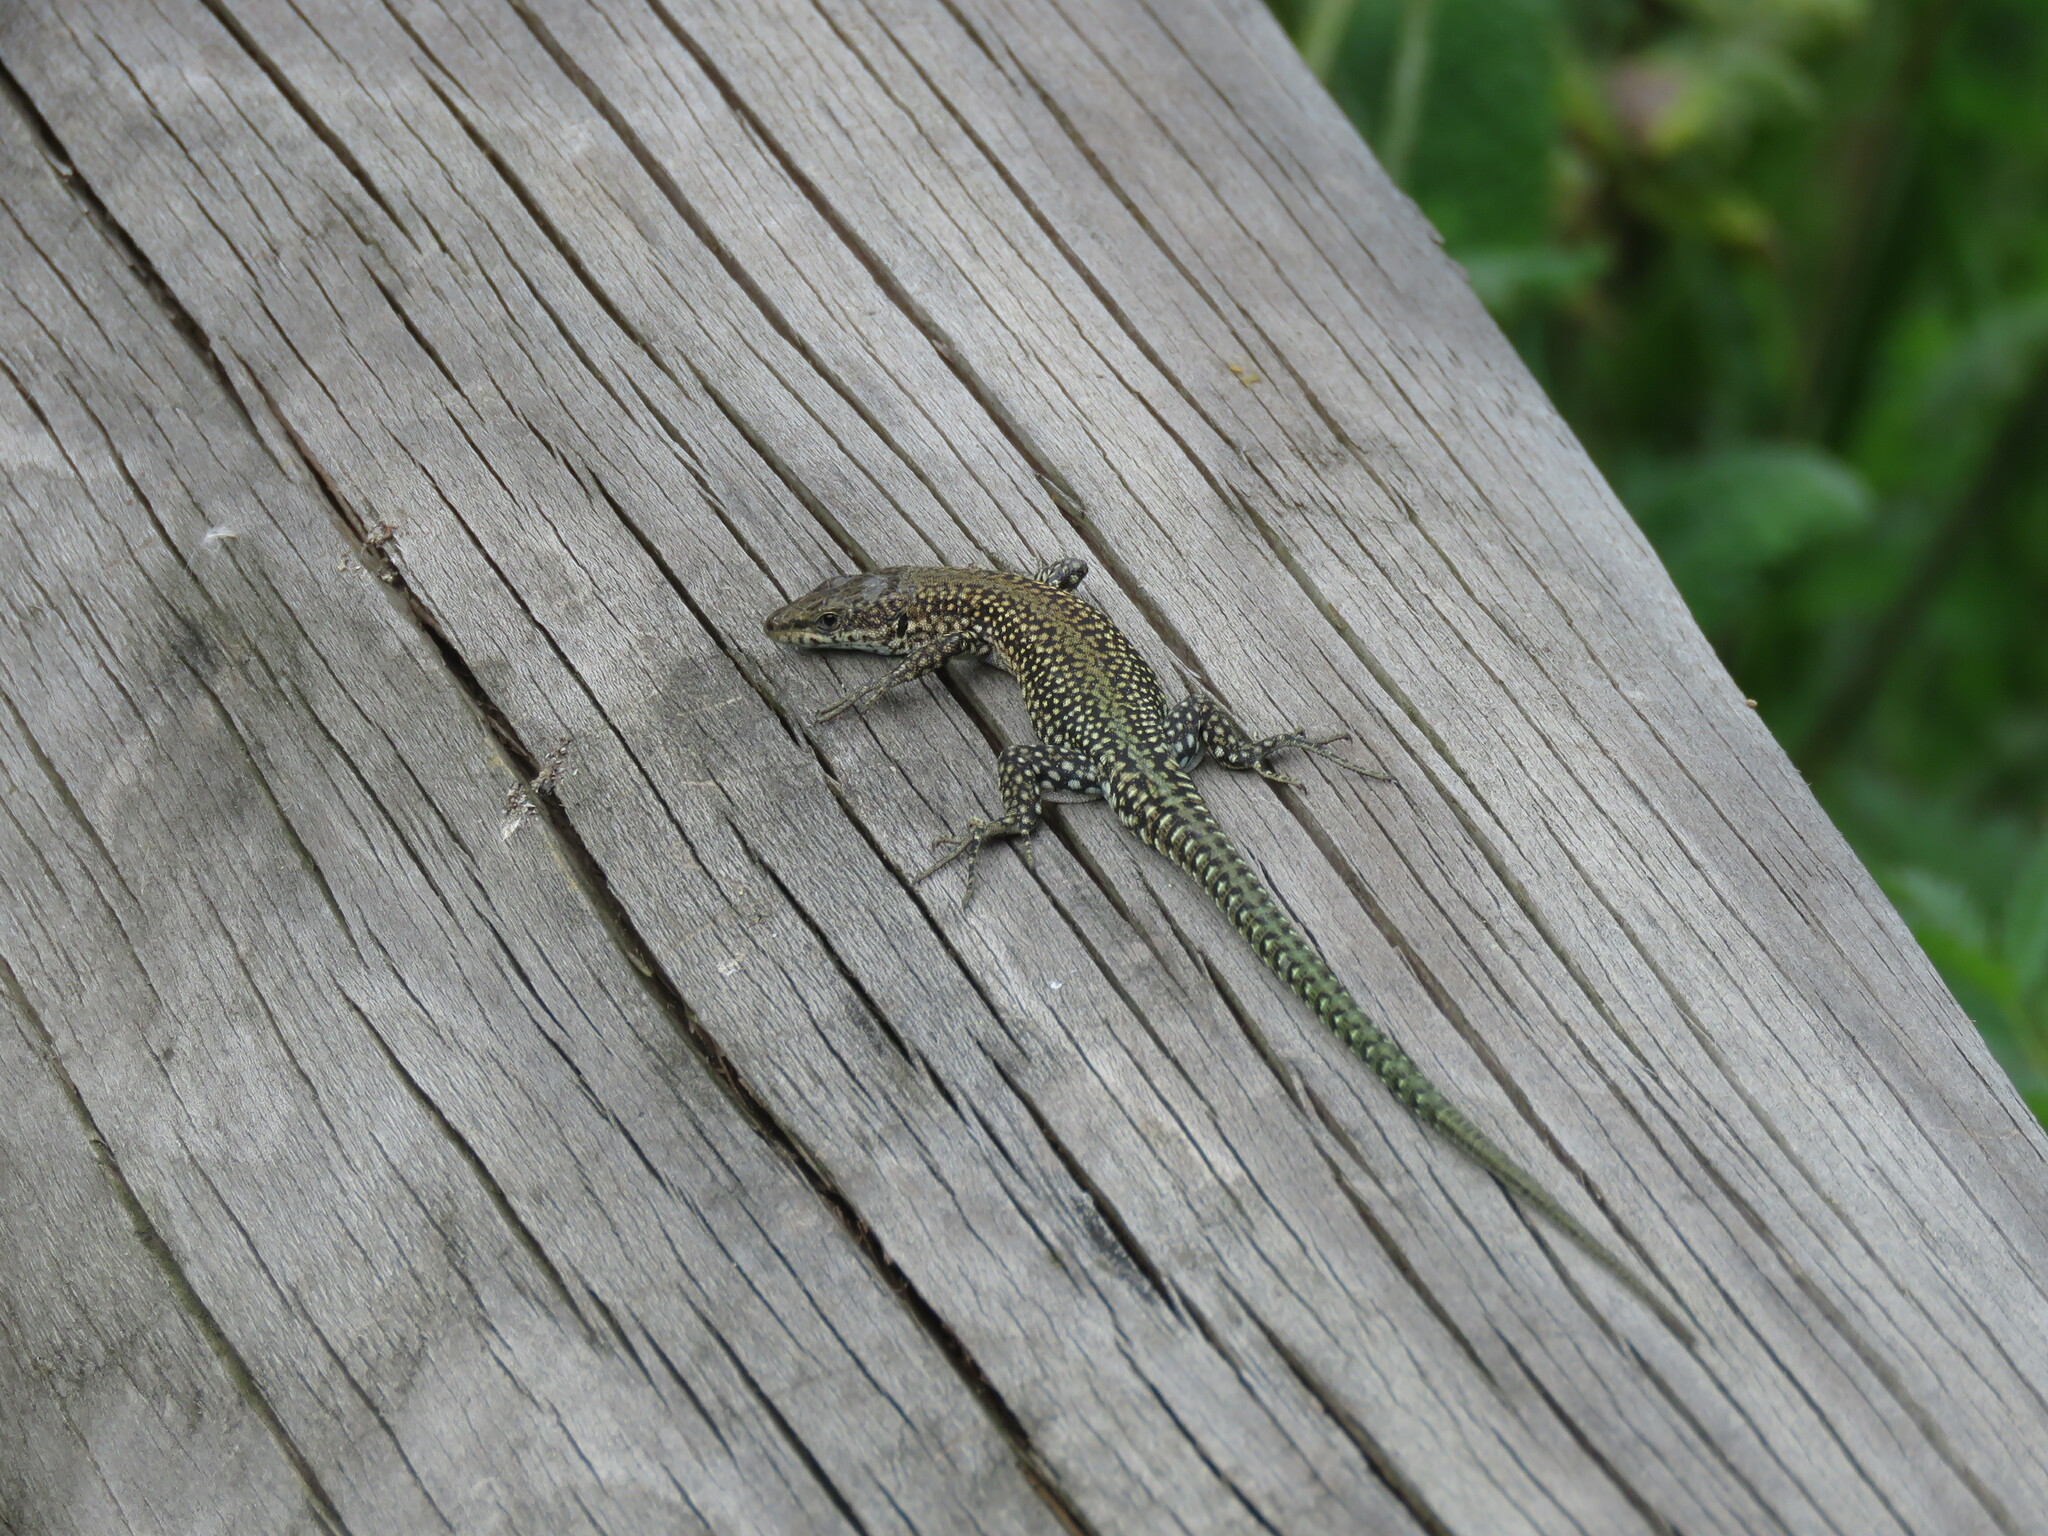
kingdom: Animalia
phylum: Chordata
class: Squamata
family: Lacertidae
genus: Podarcis
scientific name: Podarcis
